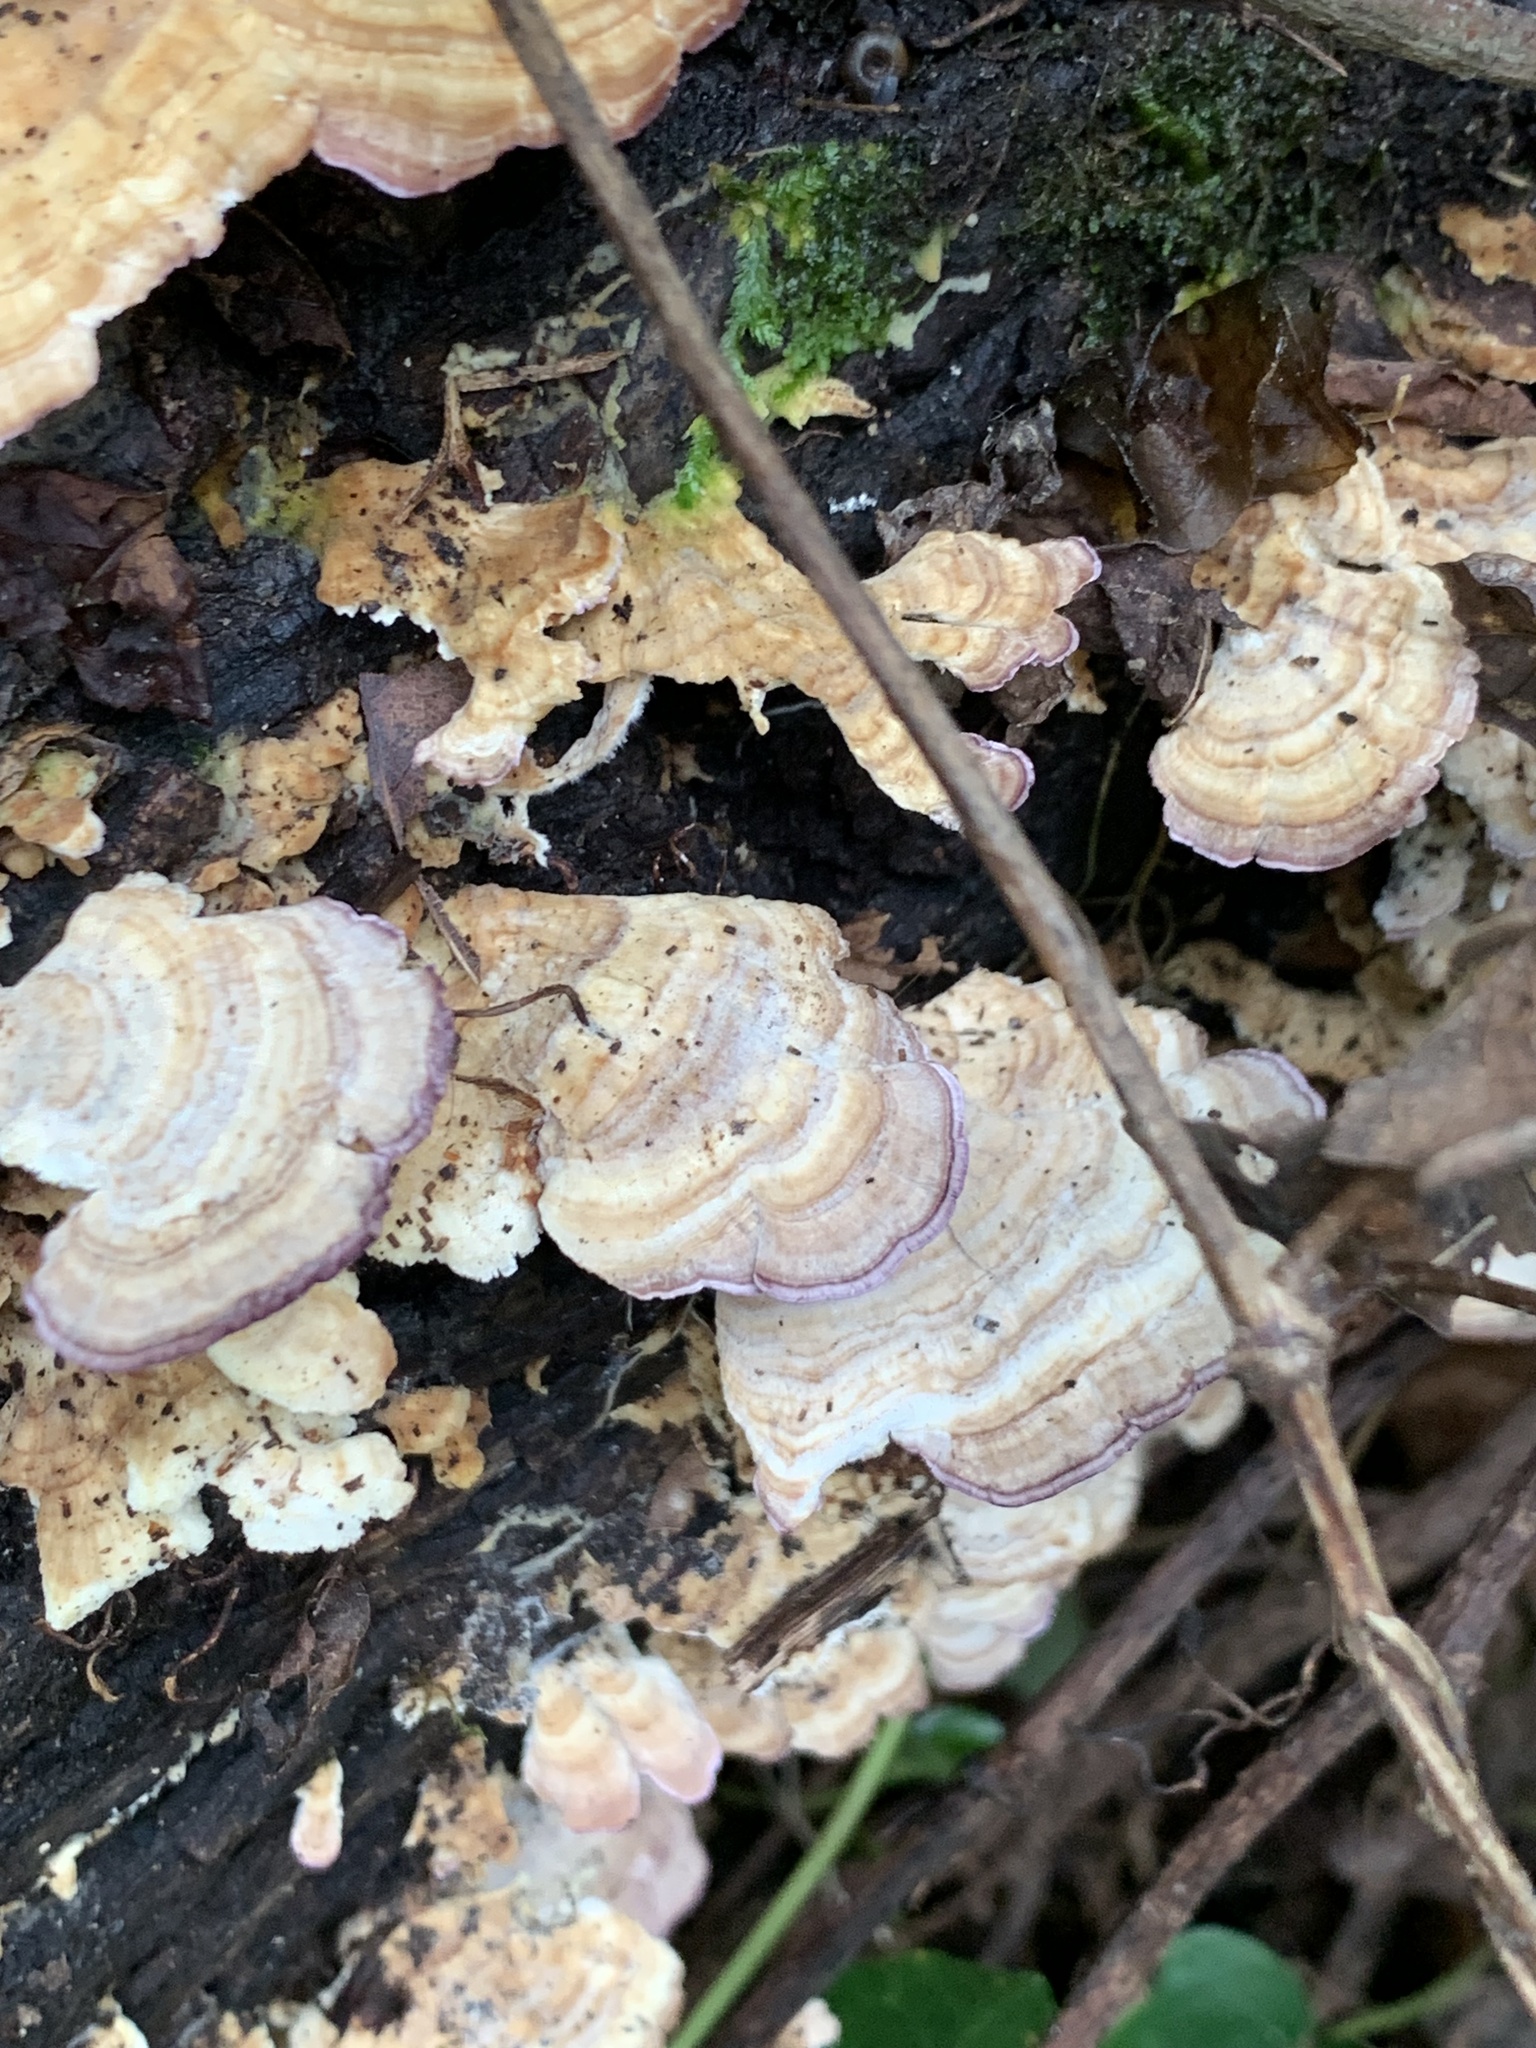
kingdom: Fungi
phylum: Basidiomycota
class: Agaricomycetes
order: Hymenochaetales
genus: Trichaptum
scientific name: Trichaptum biforme
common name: Violet-toothed polypore
